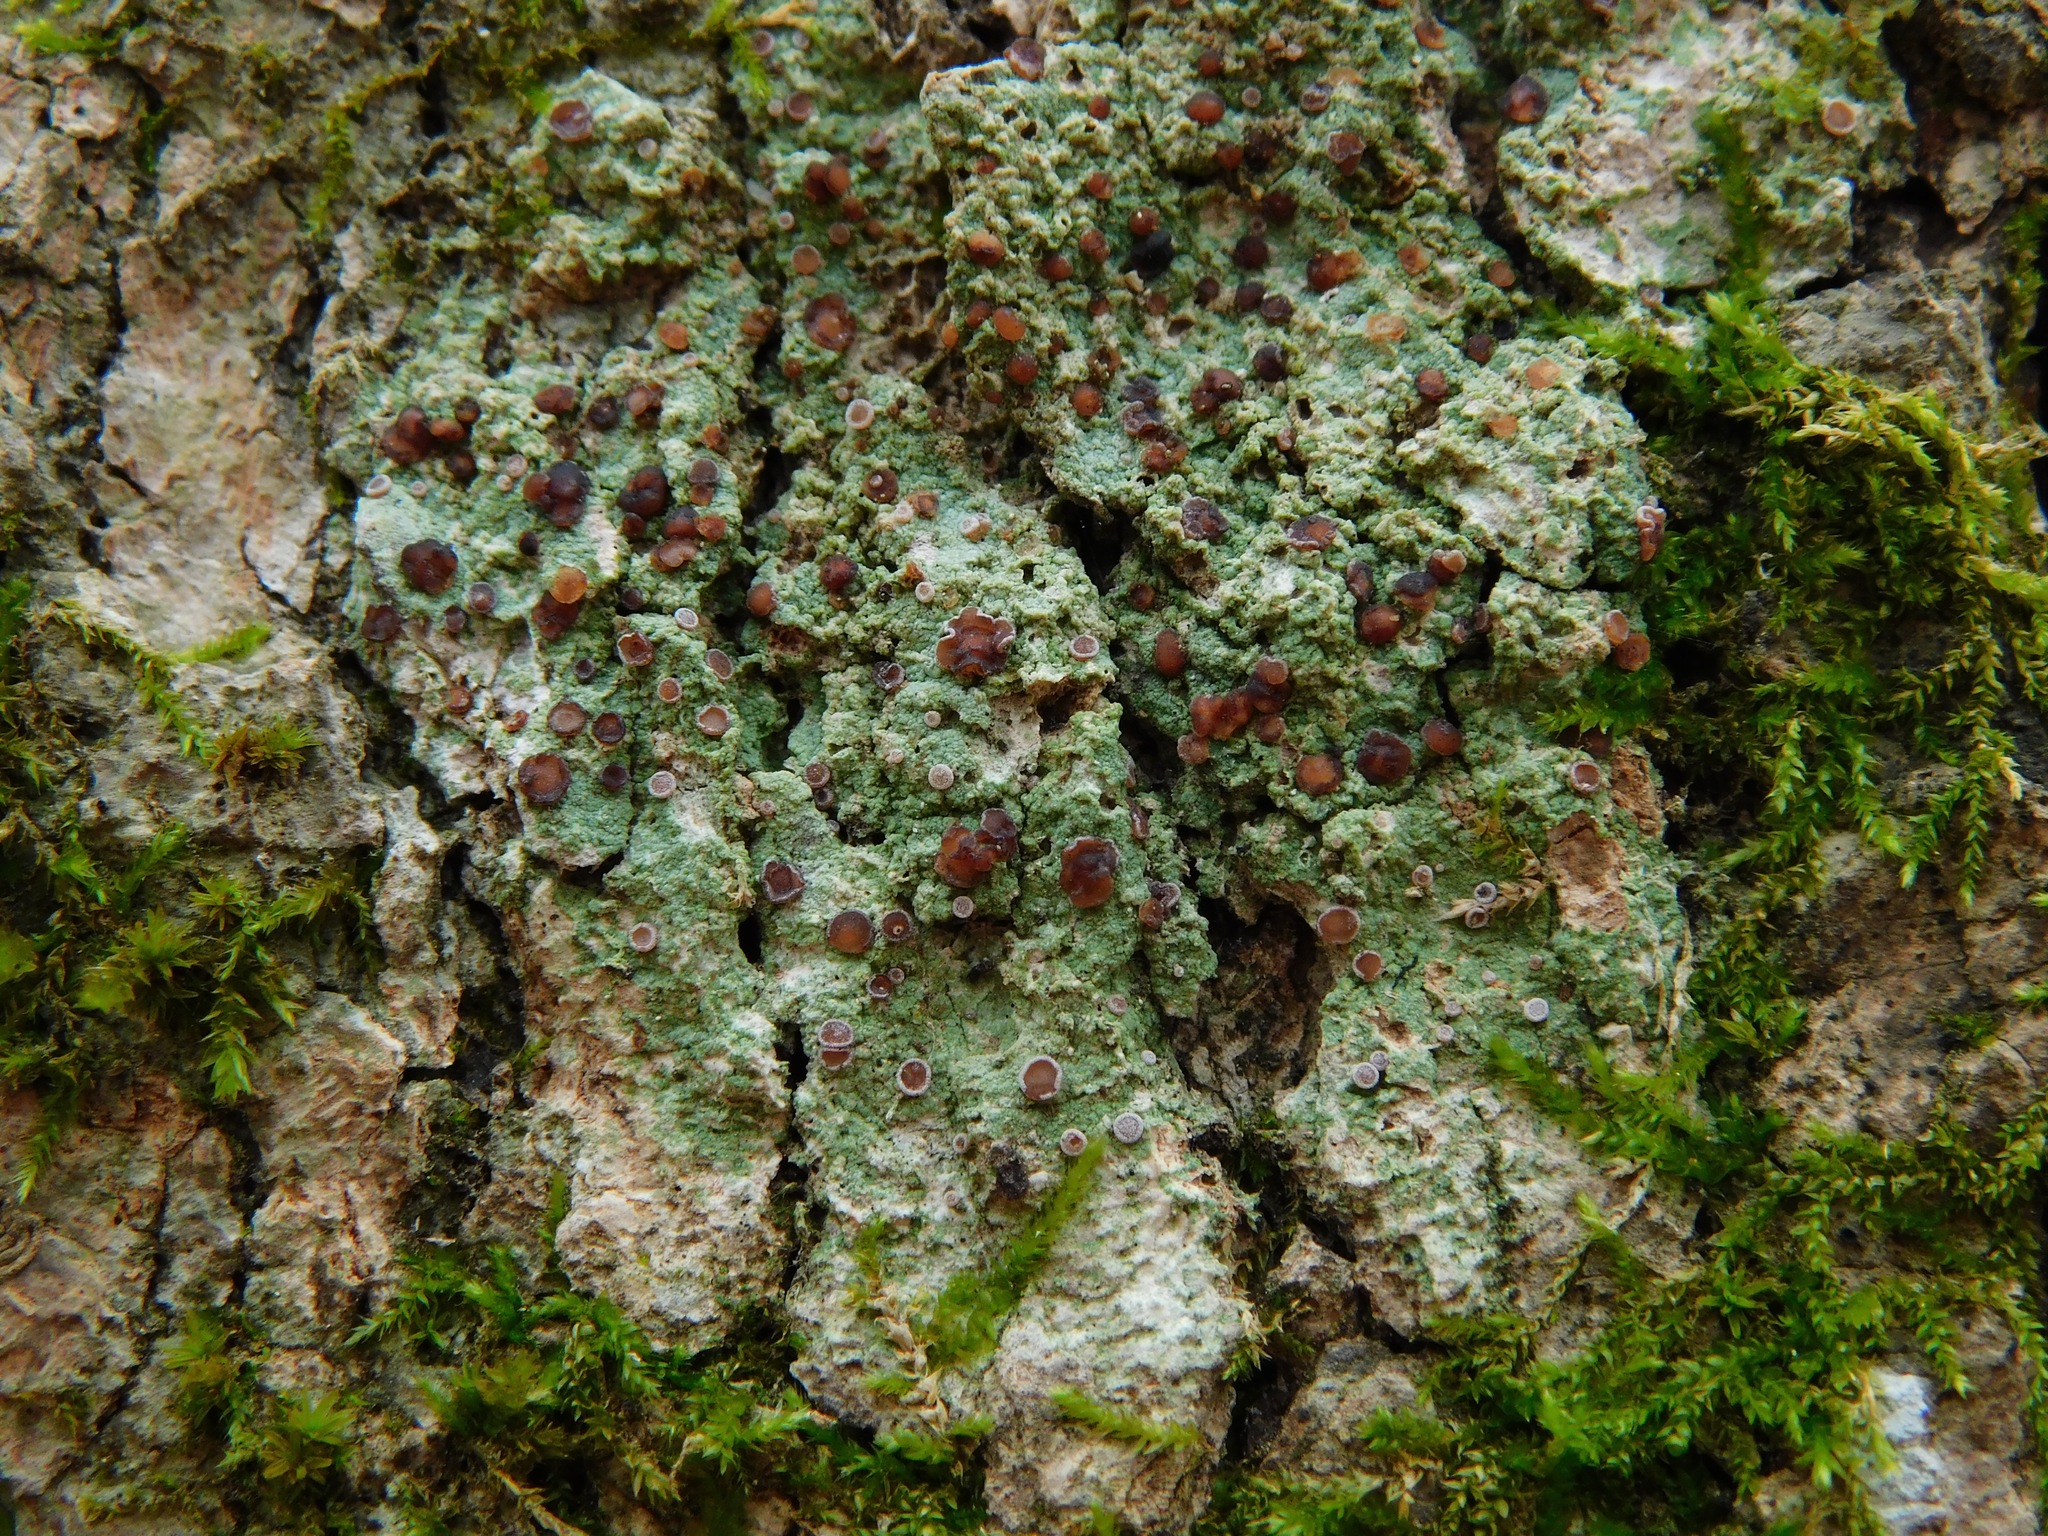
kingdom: Fungi
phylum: Ascomycota
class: Lecanoromycetes
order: Lecanorales
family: Ramalinaceae
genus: Bacidina
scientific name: Bacidina inundata
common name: Wet dot lichen
